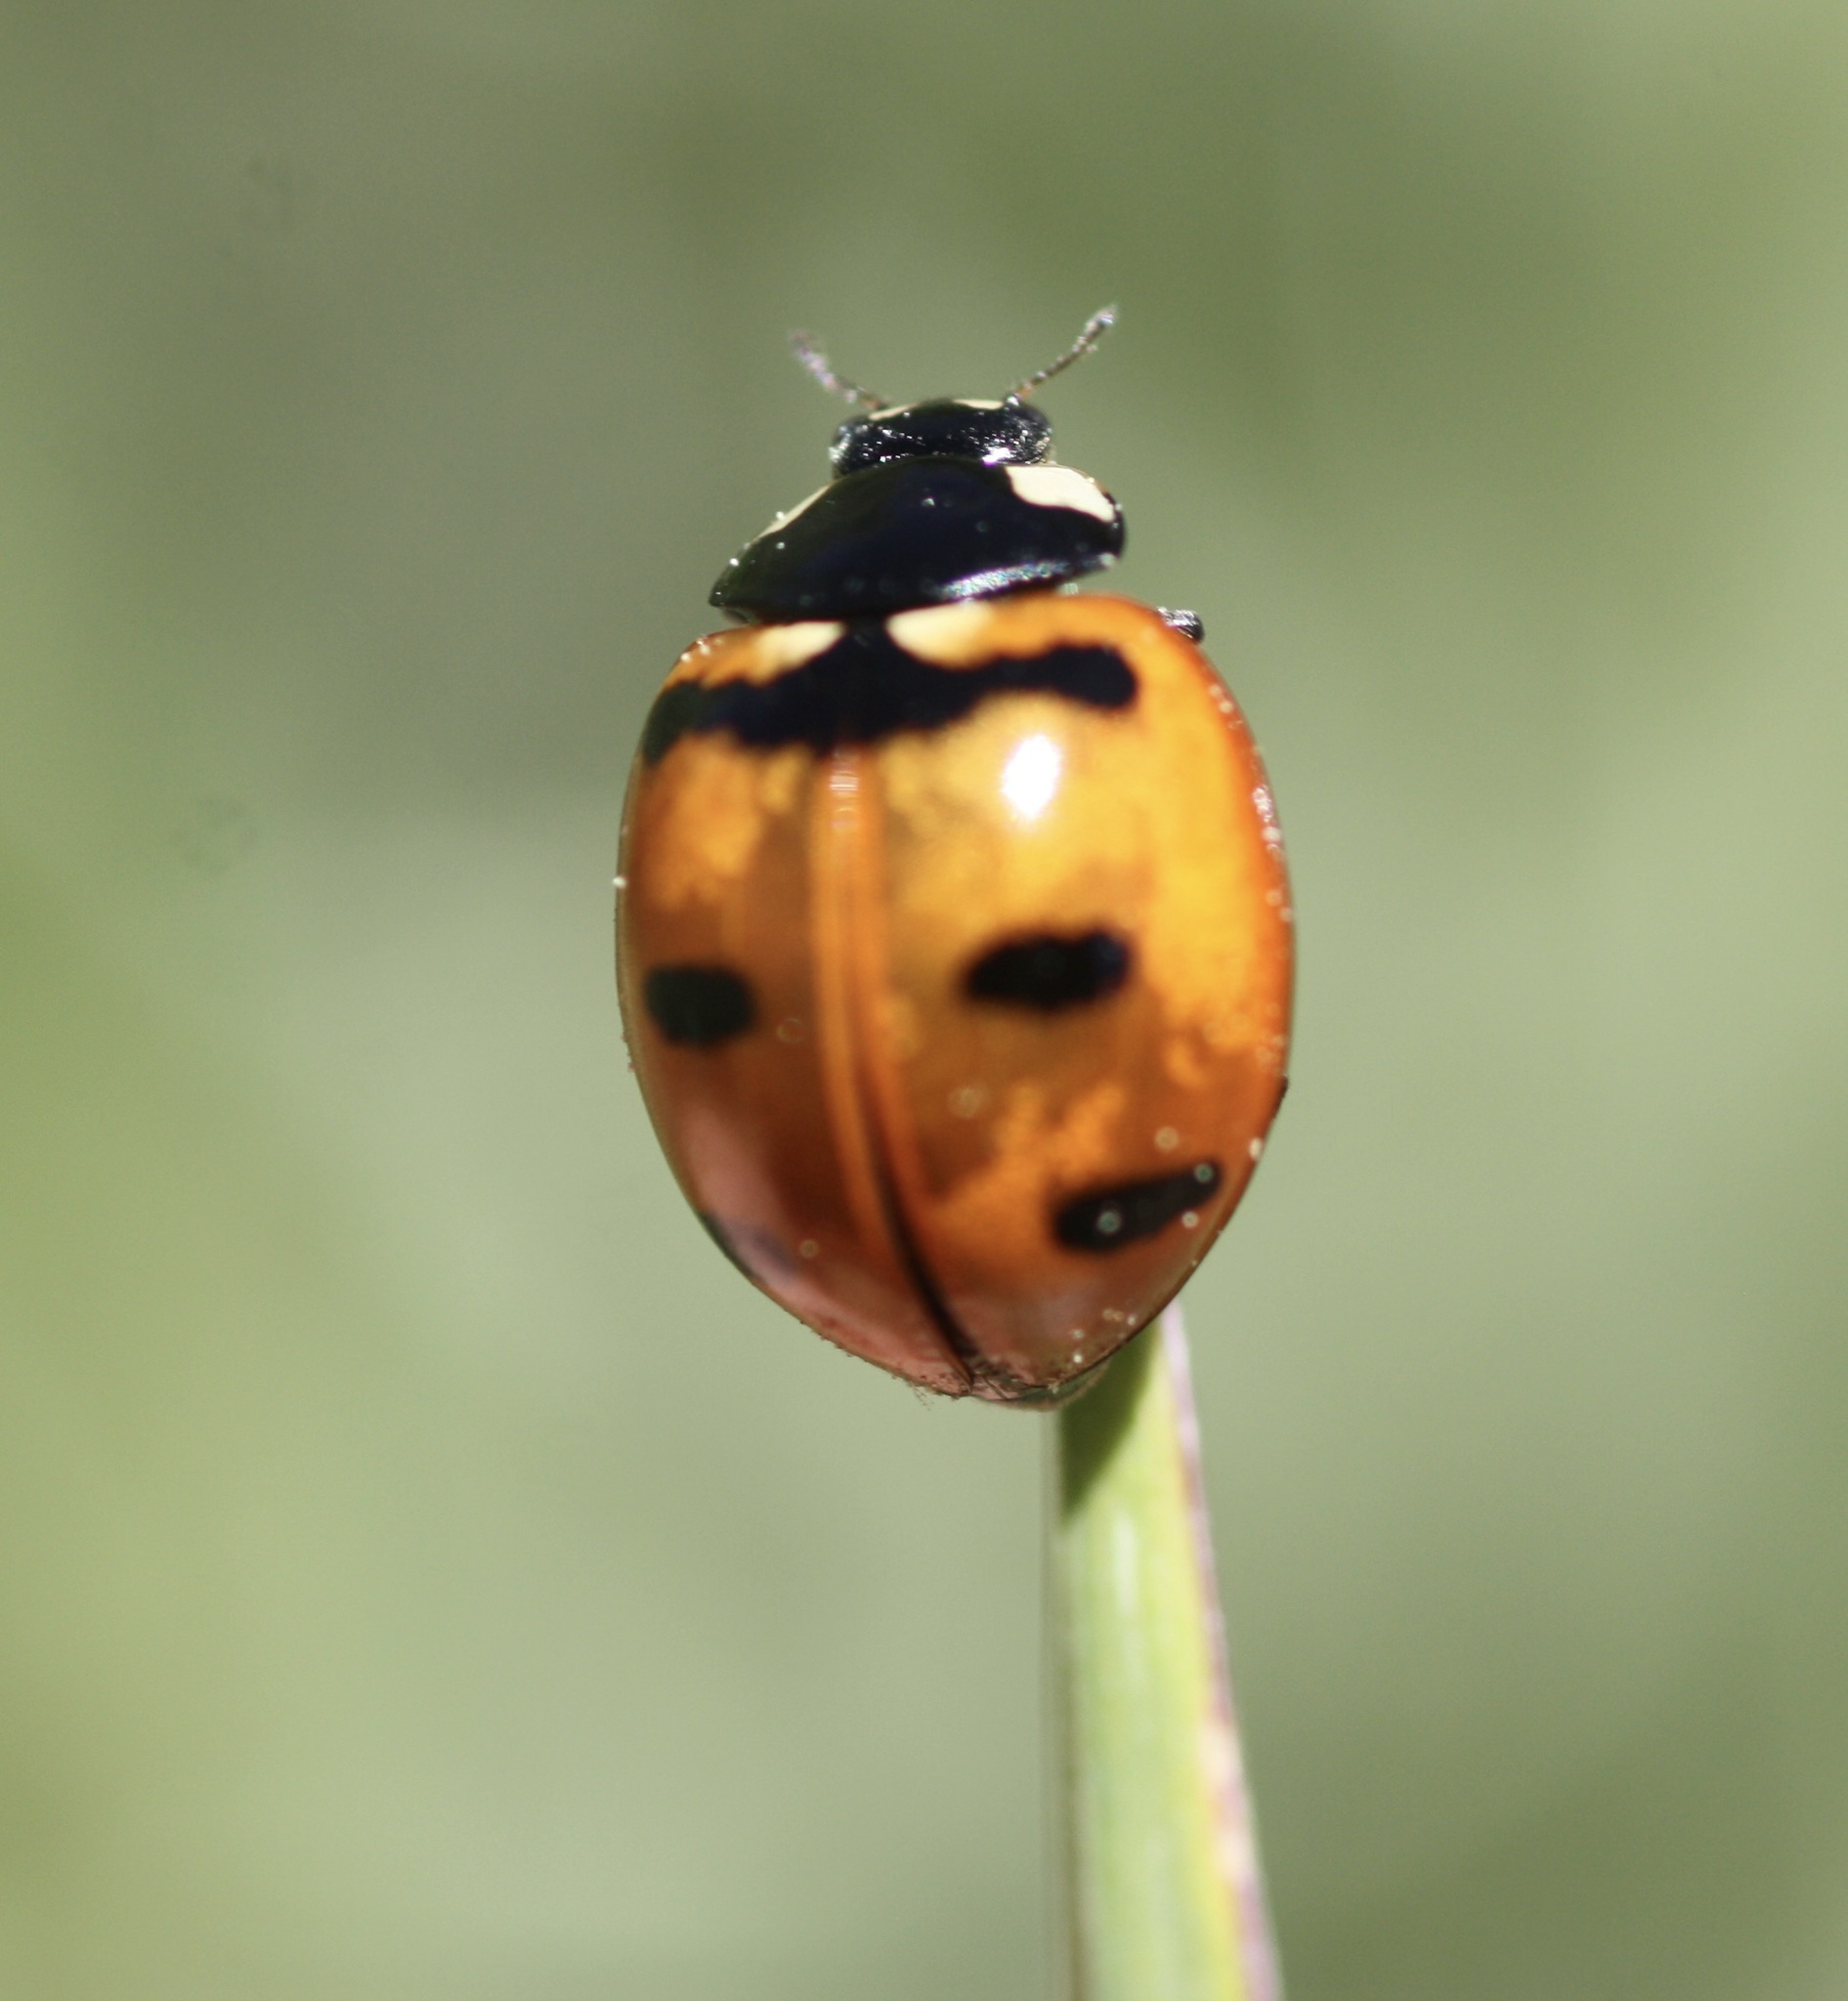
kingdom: Animalia
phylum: Arthropoda
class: Insecta
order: Coleoptera
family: Coccinellidae
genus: Coccinella
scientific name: Coccinella transversoguttata
